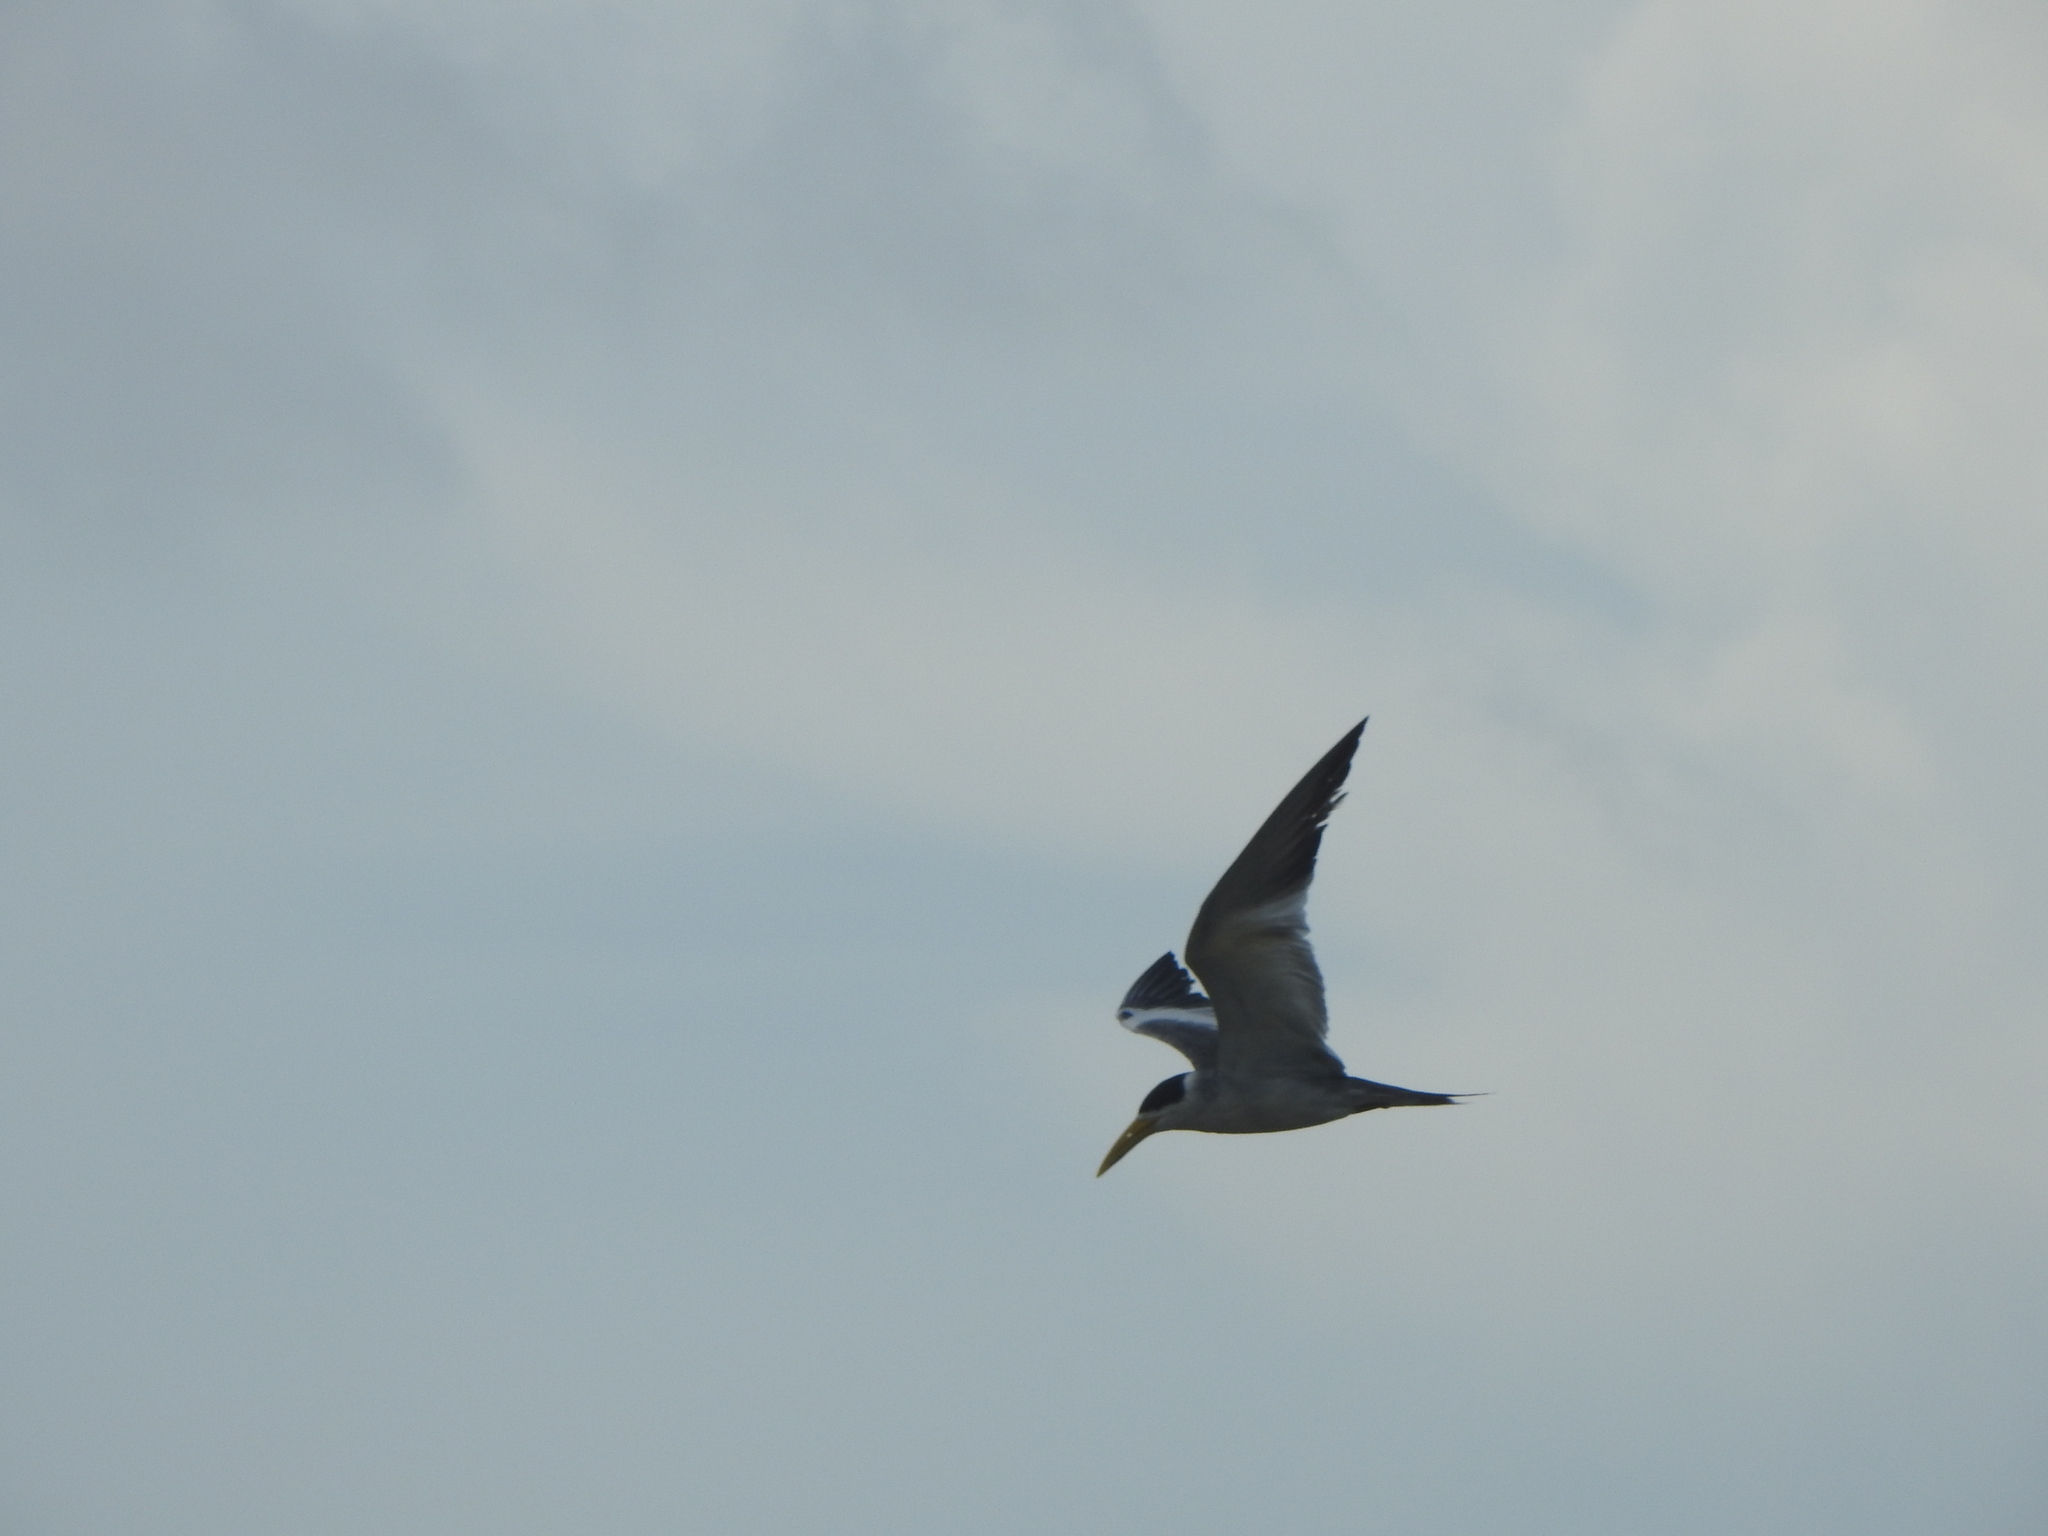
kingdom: Animalia
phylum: Chordata
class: Aves
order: Charadriiformes
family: Laridae
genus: Phaetusa
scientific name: Phaetusa simplex
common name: Large-billed tern
